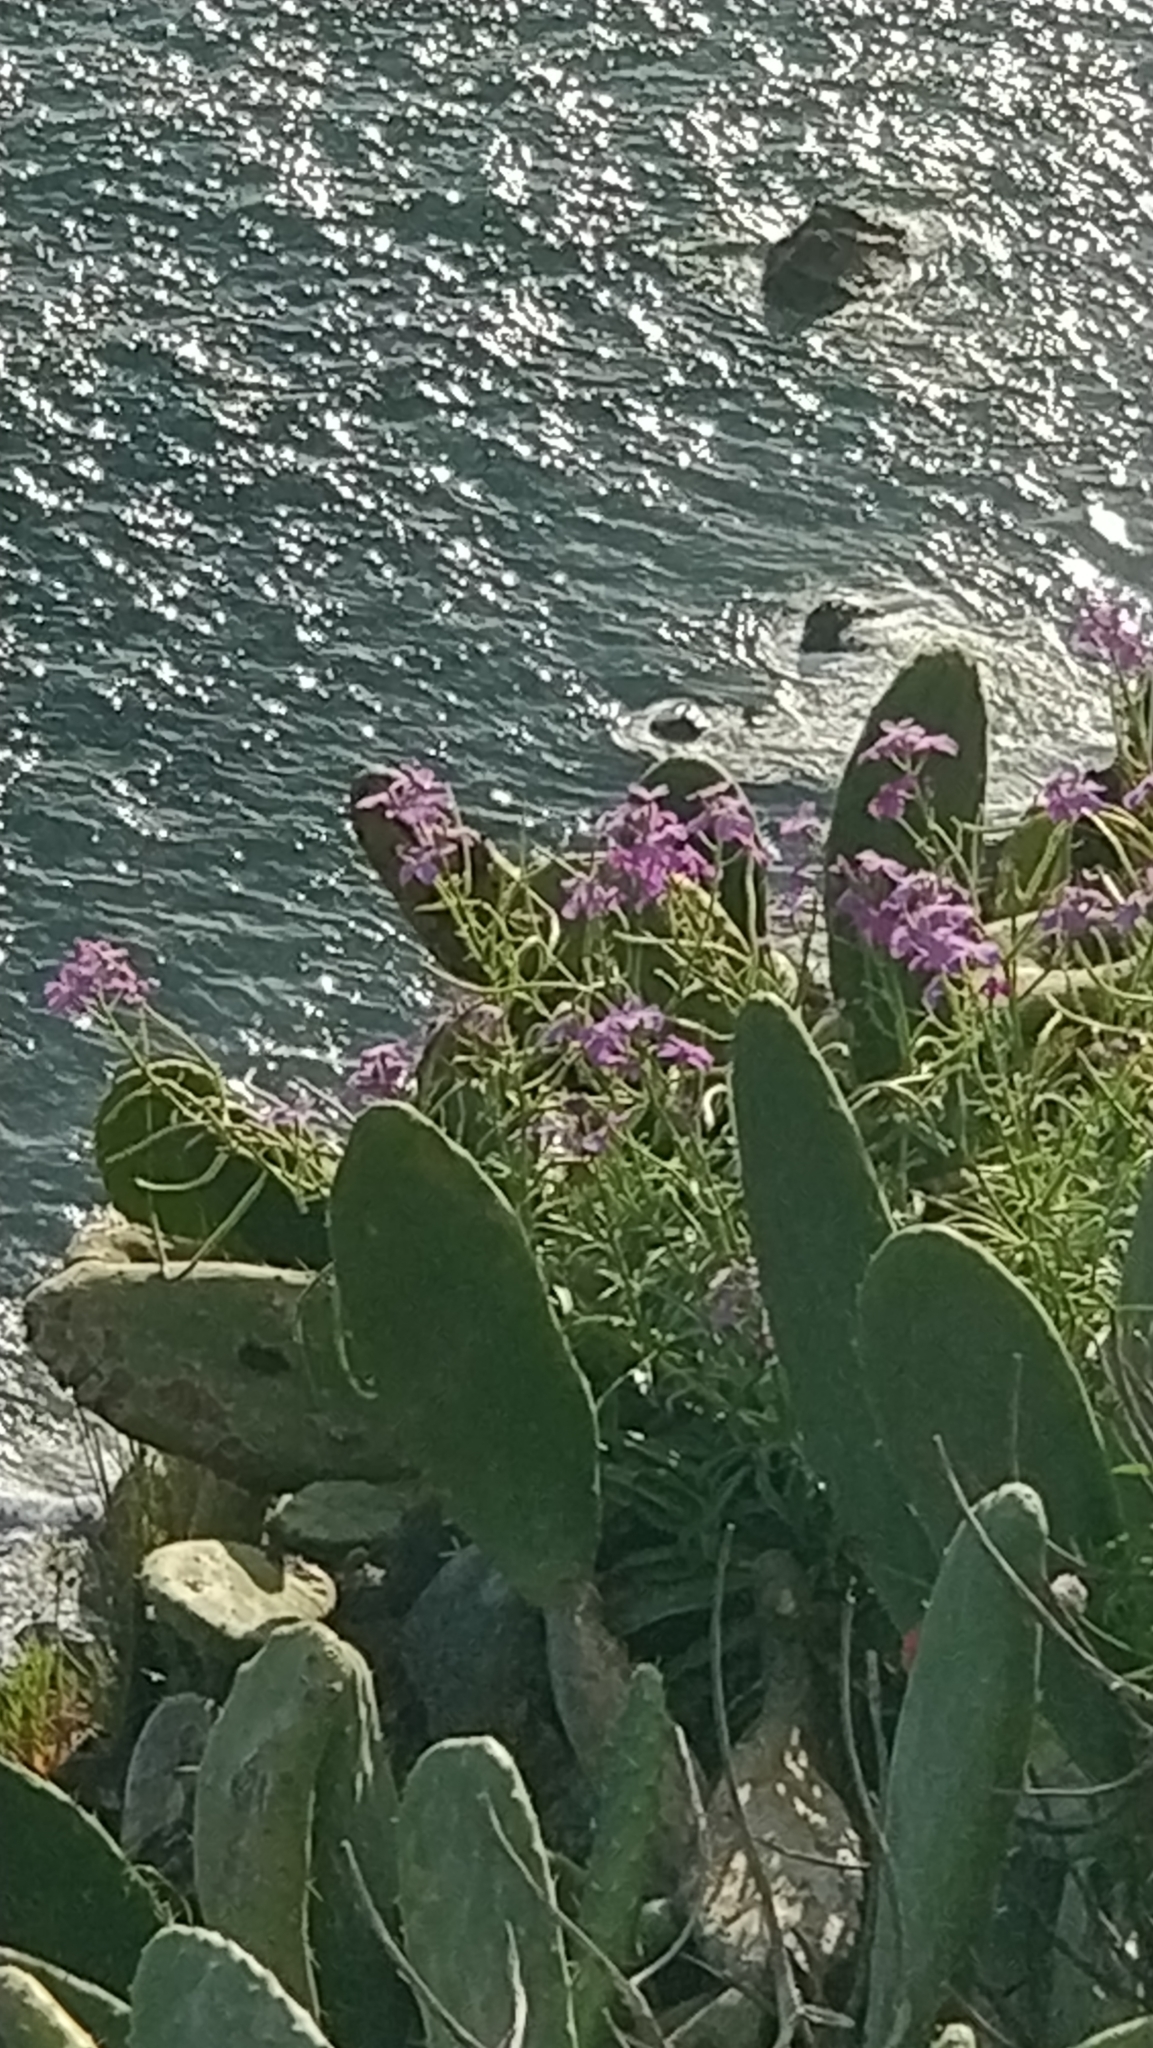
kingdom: Plantae
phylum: Tracheophyta
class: Magnoliopsida
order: Brassicales
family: Brassicaceae
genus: Matthiola
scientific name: Matthiola maderensis
